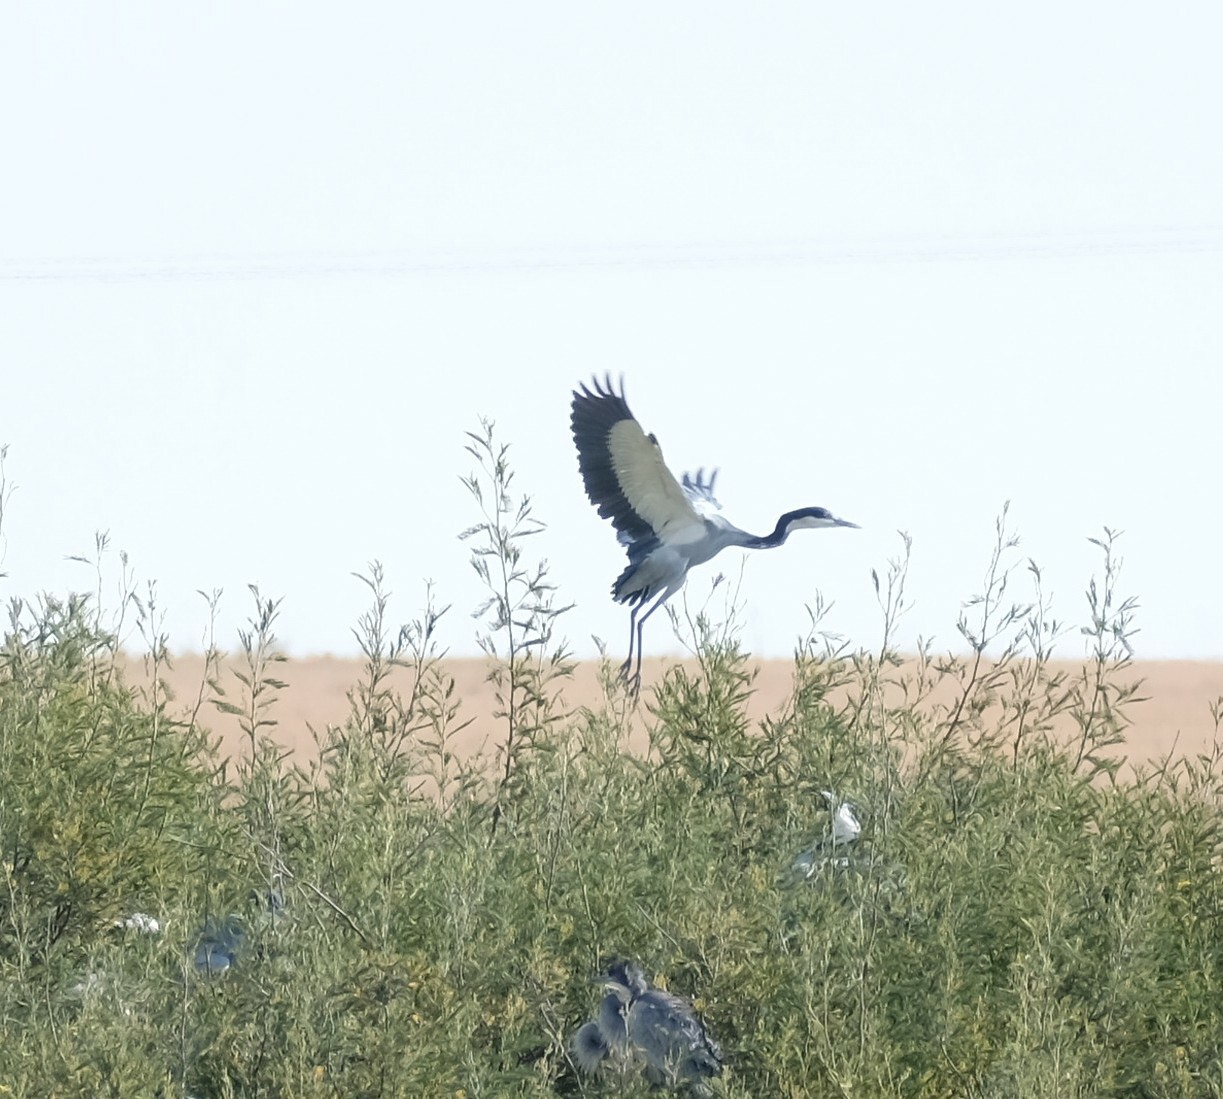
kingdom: Animalia
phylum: Chordata
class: Aves
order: Pelecaniformes
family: Ardeidae
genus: Ardea
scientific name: Ardea melanocephala
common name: Black-headed heron
